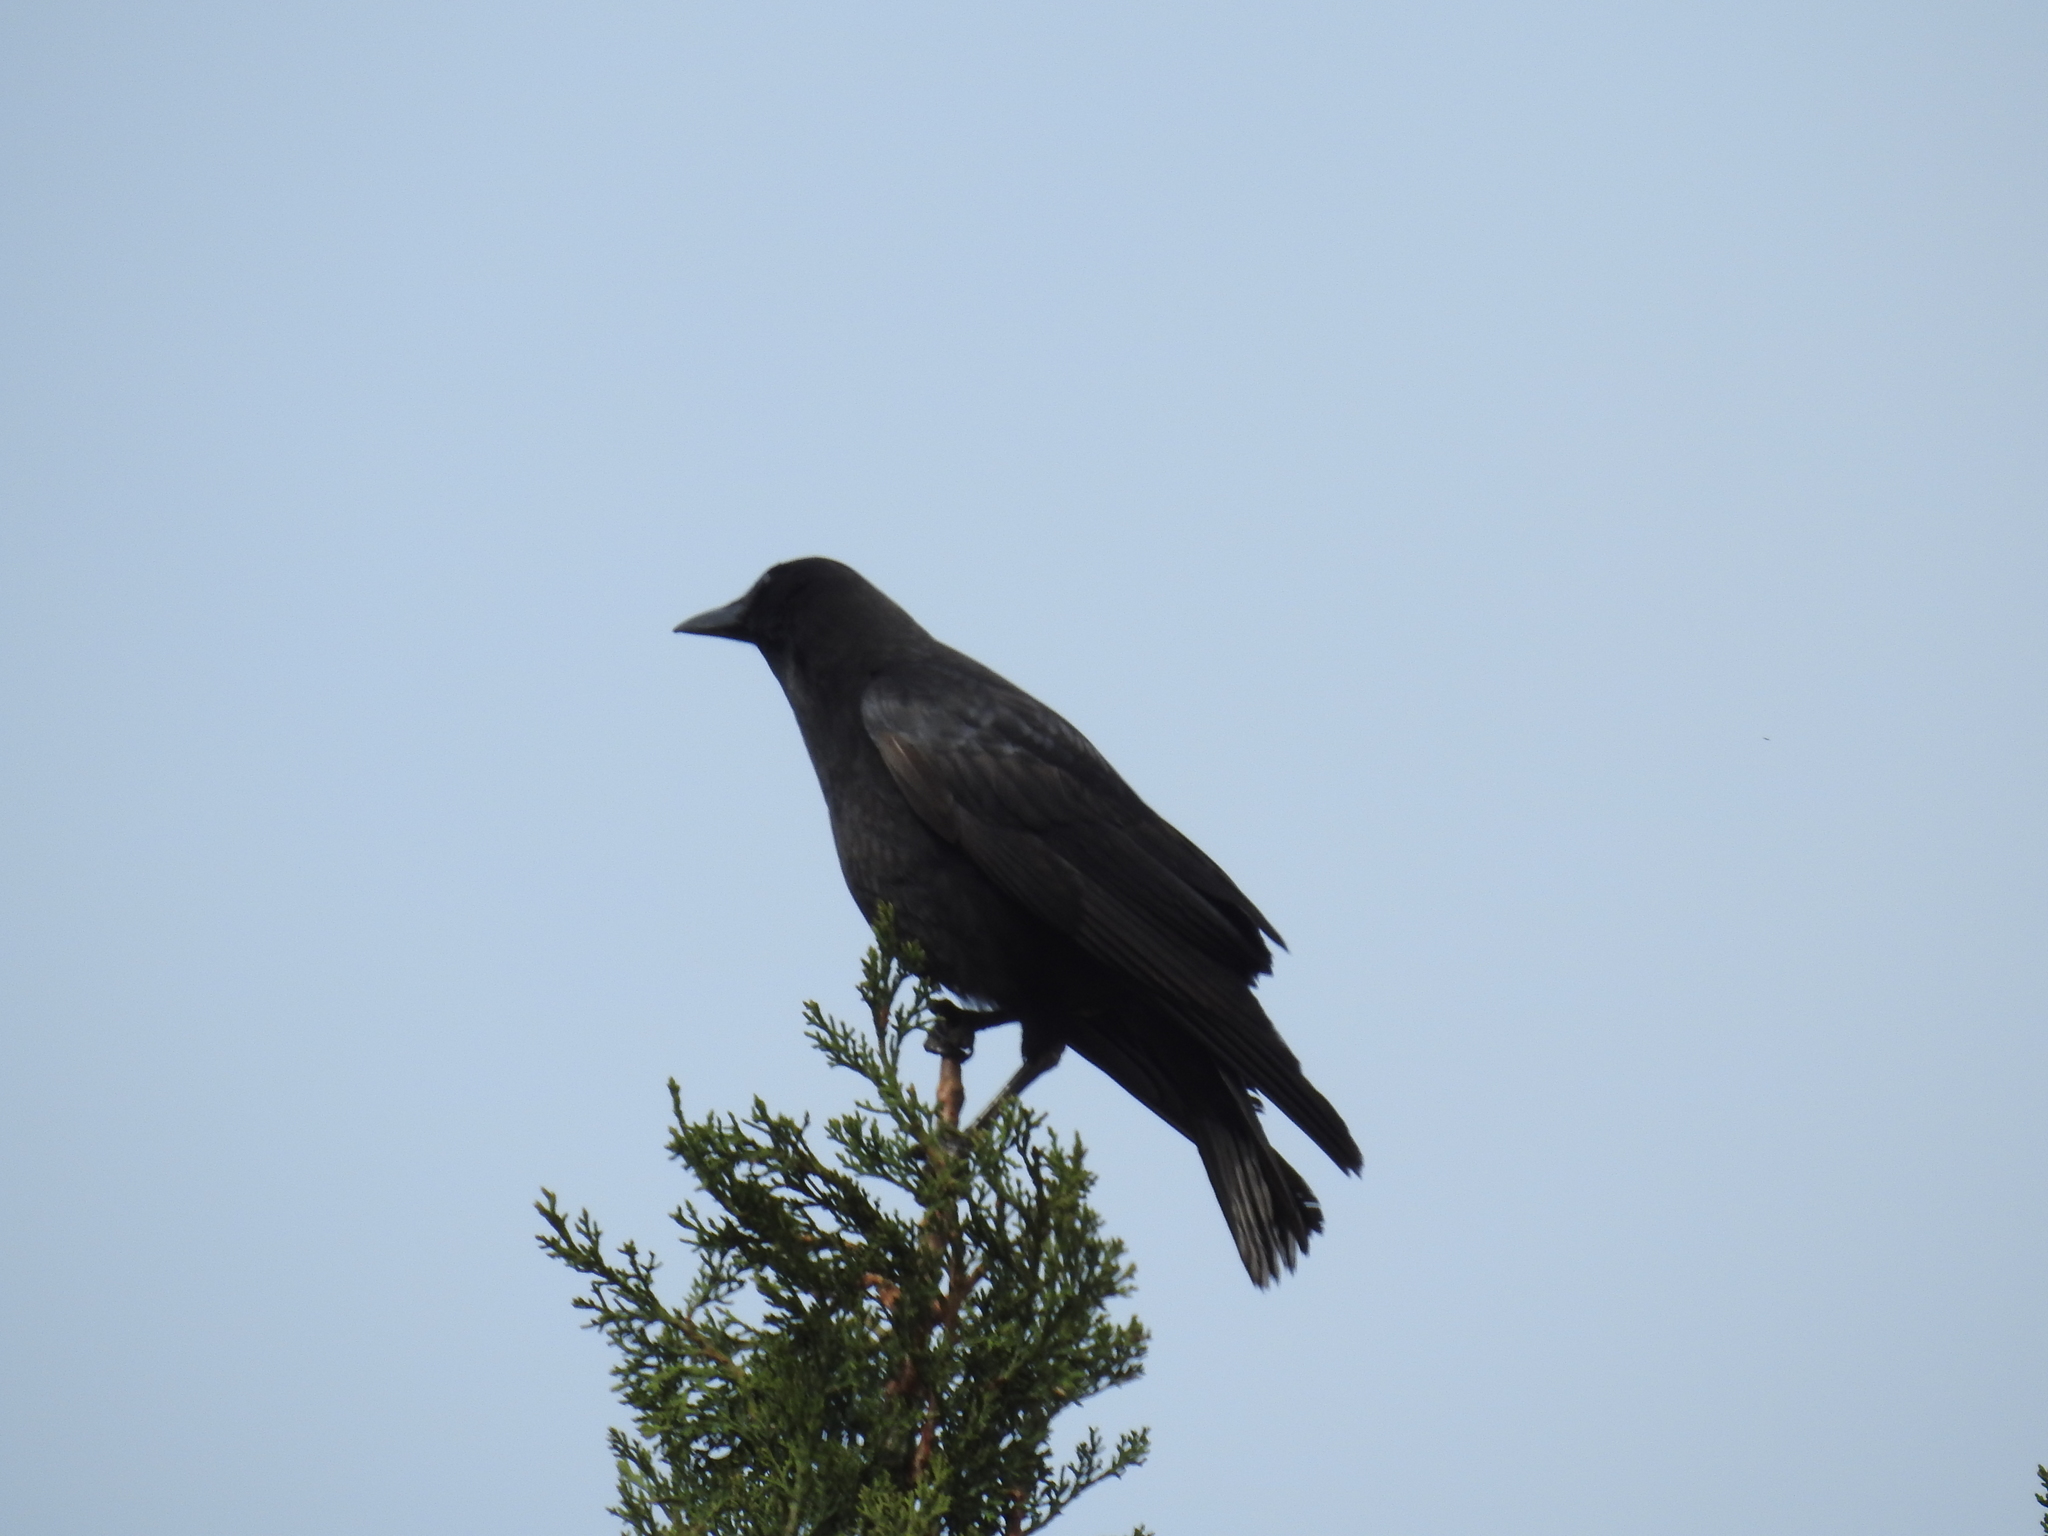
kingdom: Animalia
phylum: Chordata
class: Aves
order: Passeriformes
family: Corvidae
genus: Corvus
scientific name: Corvus brachyrhynchos
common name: American crow
